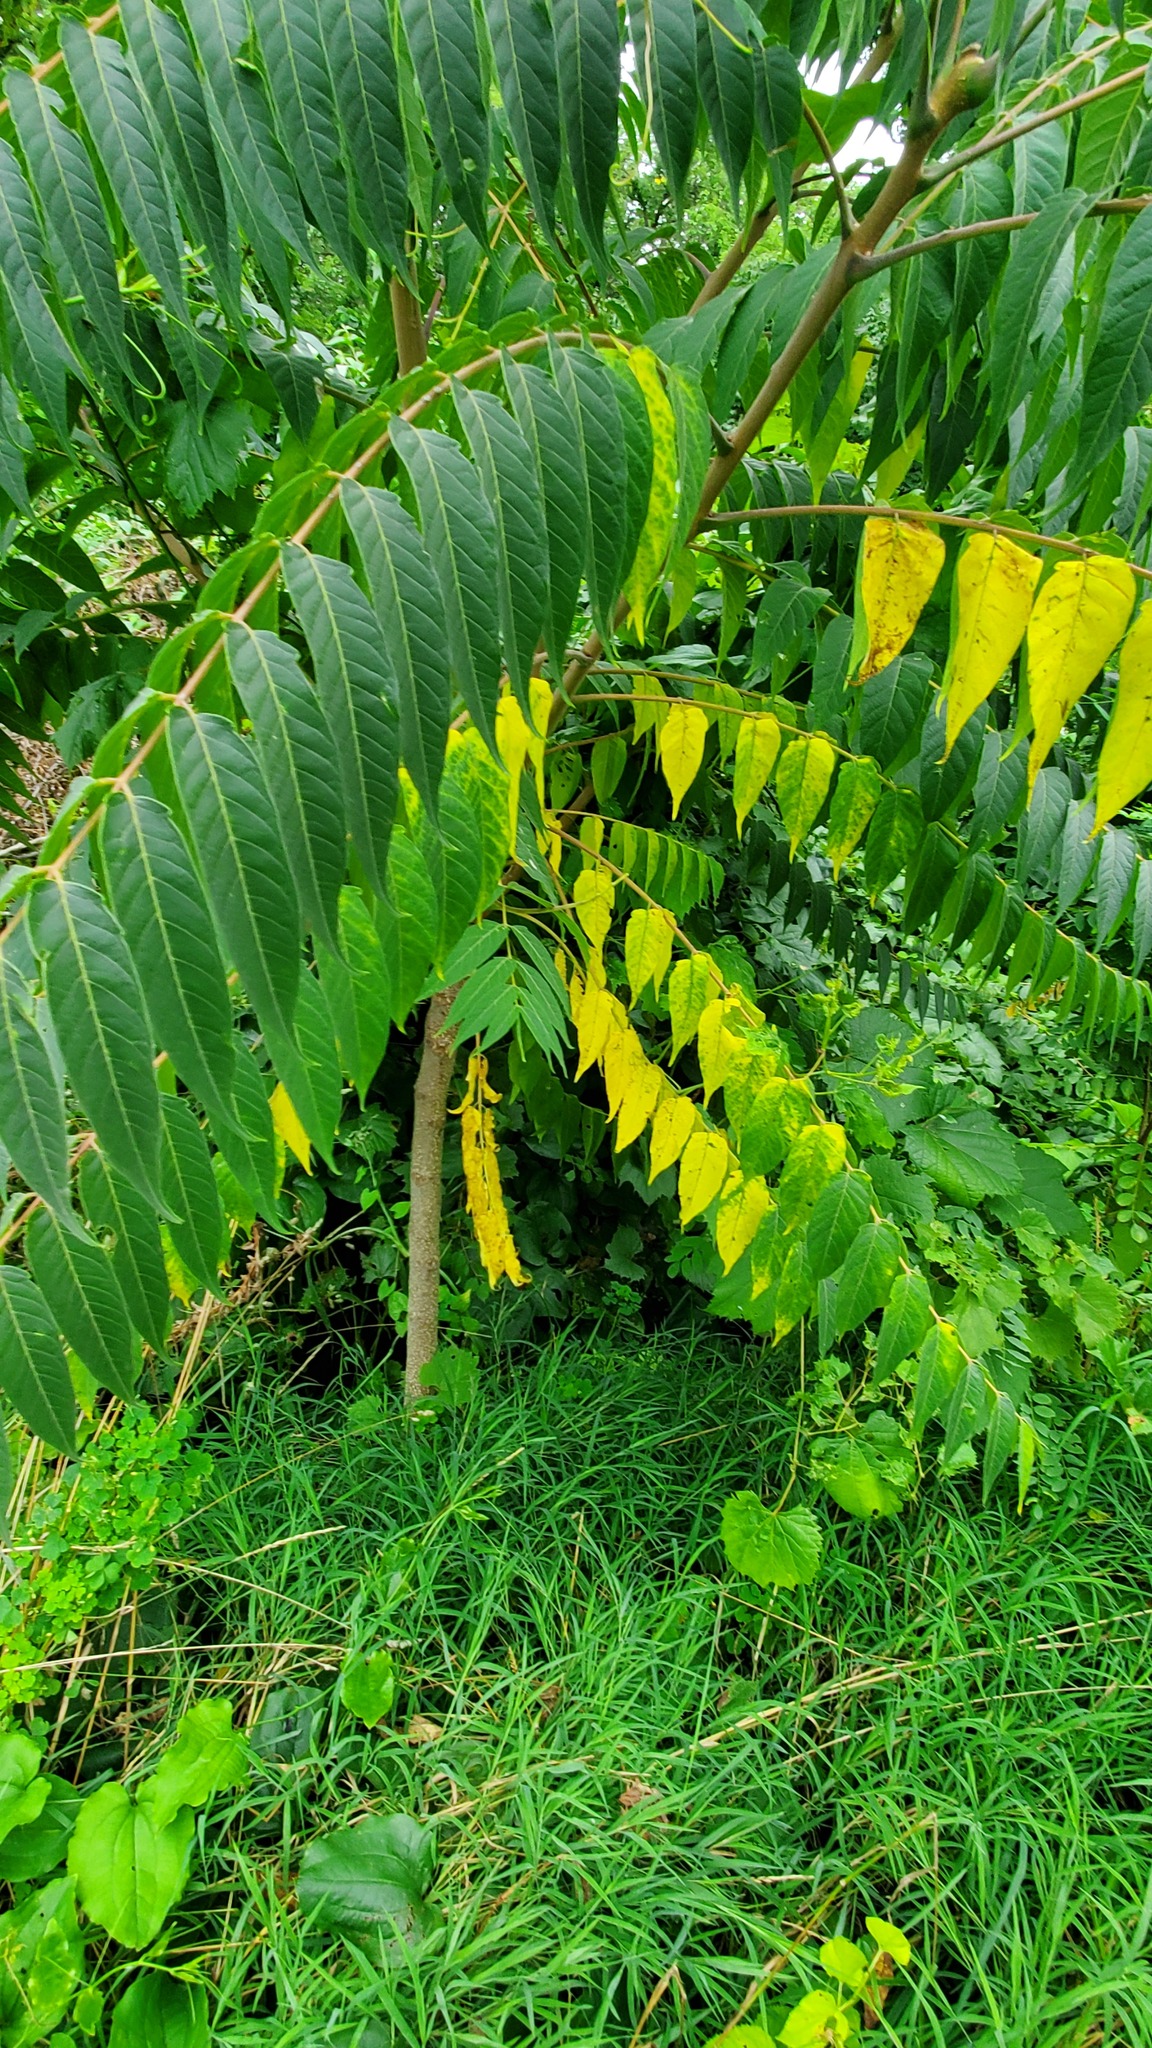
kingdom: Plantae
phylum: Tracheophyta
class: Magnoliopsida
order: Sapindales
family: Simaroubaceae
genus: Ailanthus
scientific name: Ailanthus altissima
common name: Tree-of-heaven
